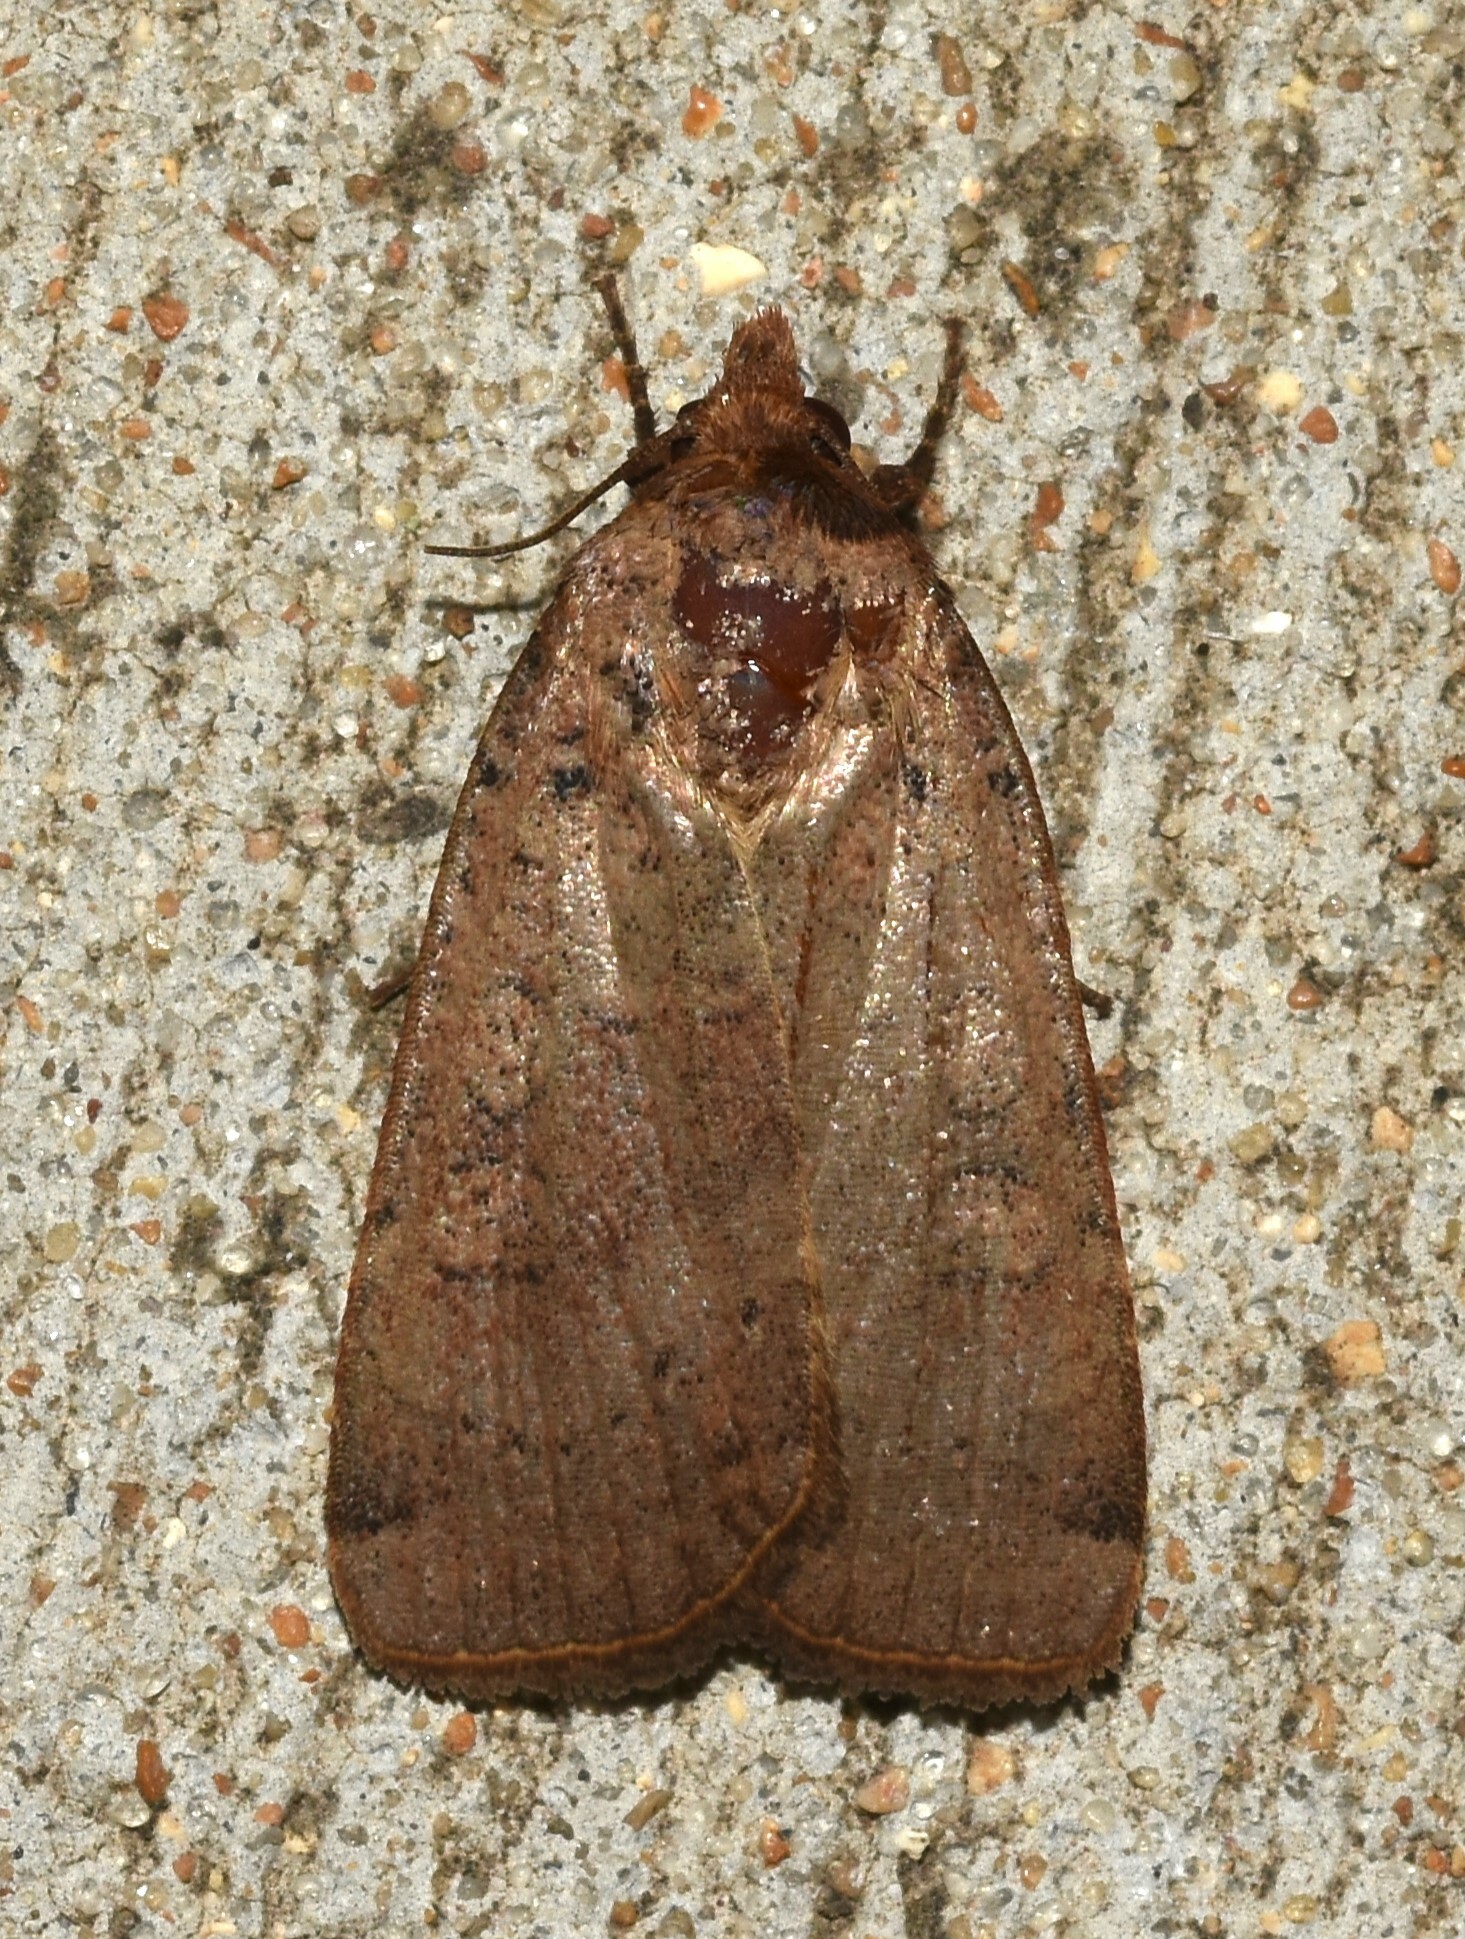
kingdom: Animalia
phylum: Arthropoda
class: Insecta
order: Lepidoptera
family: Noctuidae
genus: Abagrotis
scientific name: Abagrotis alternata
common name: Greater red dart
